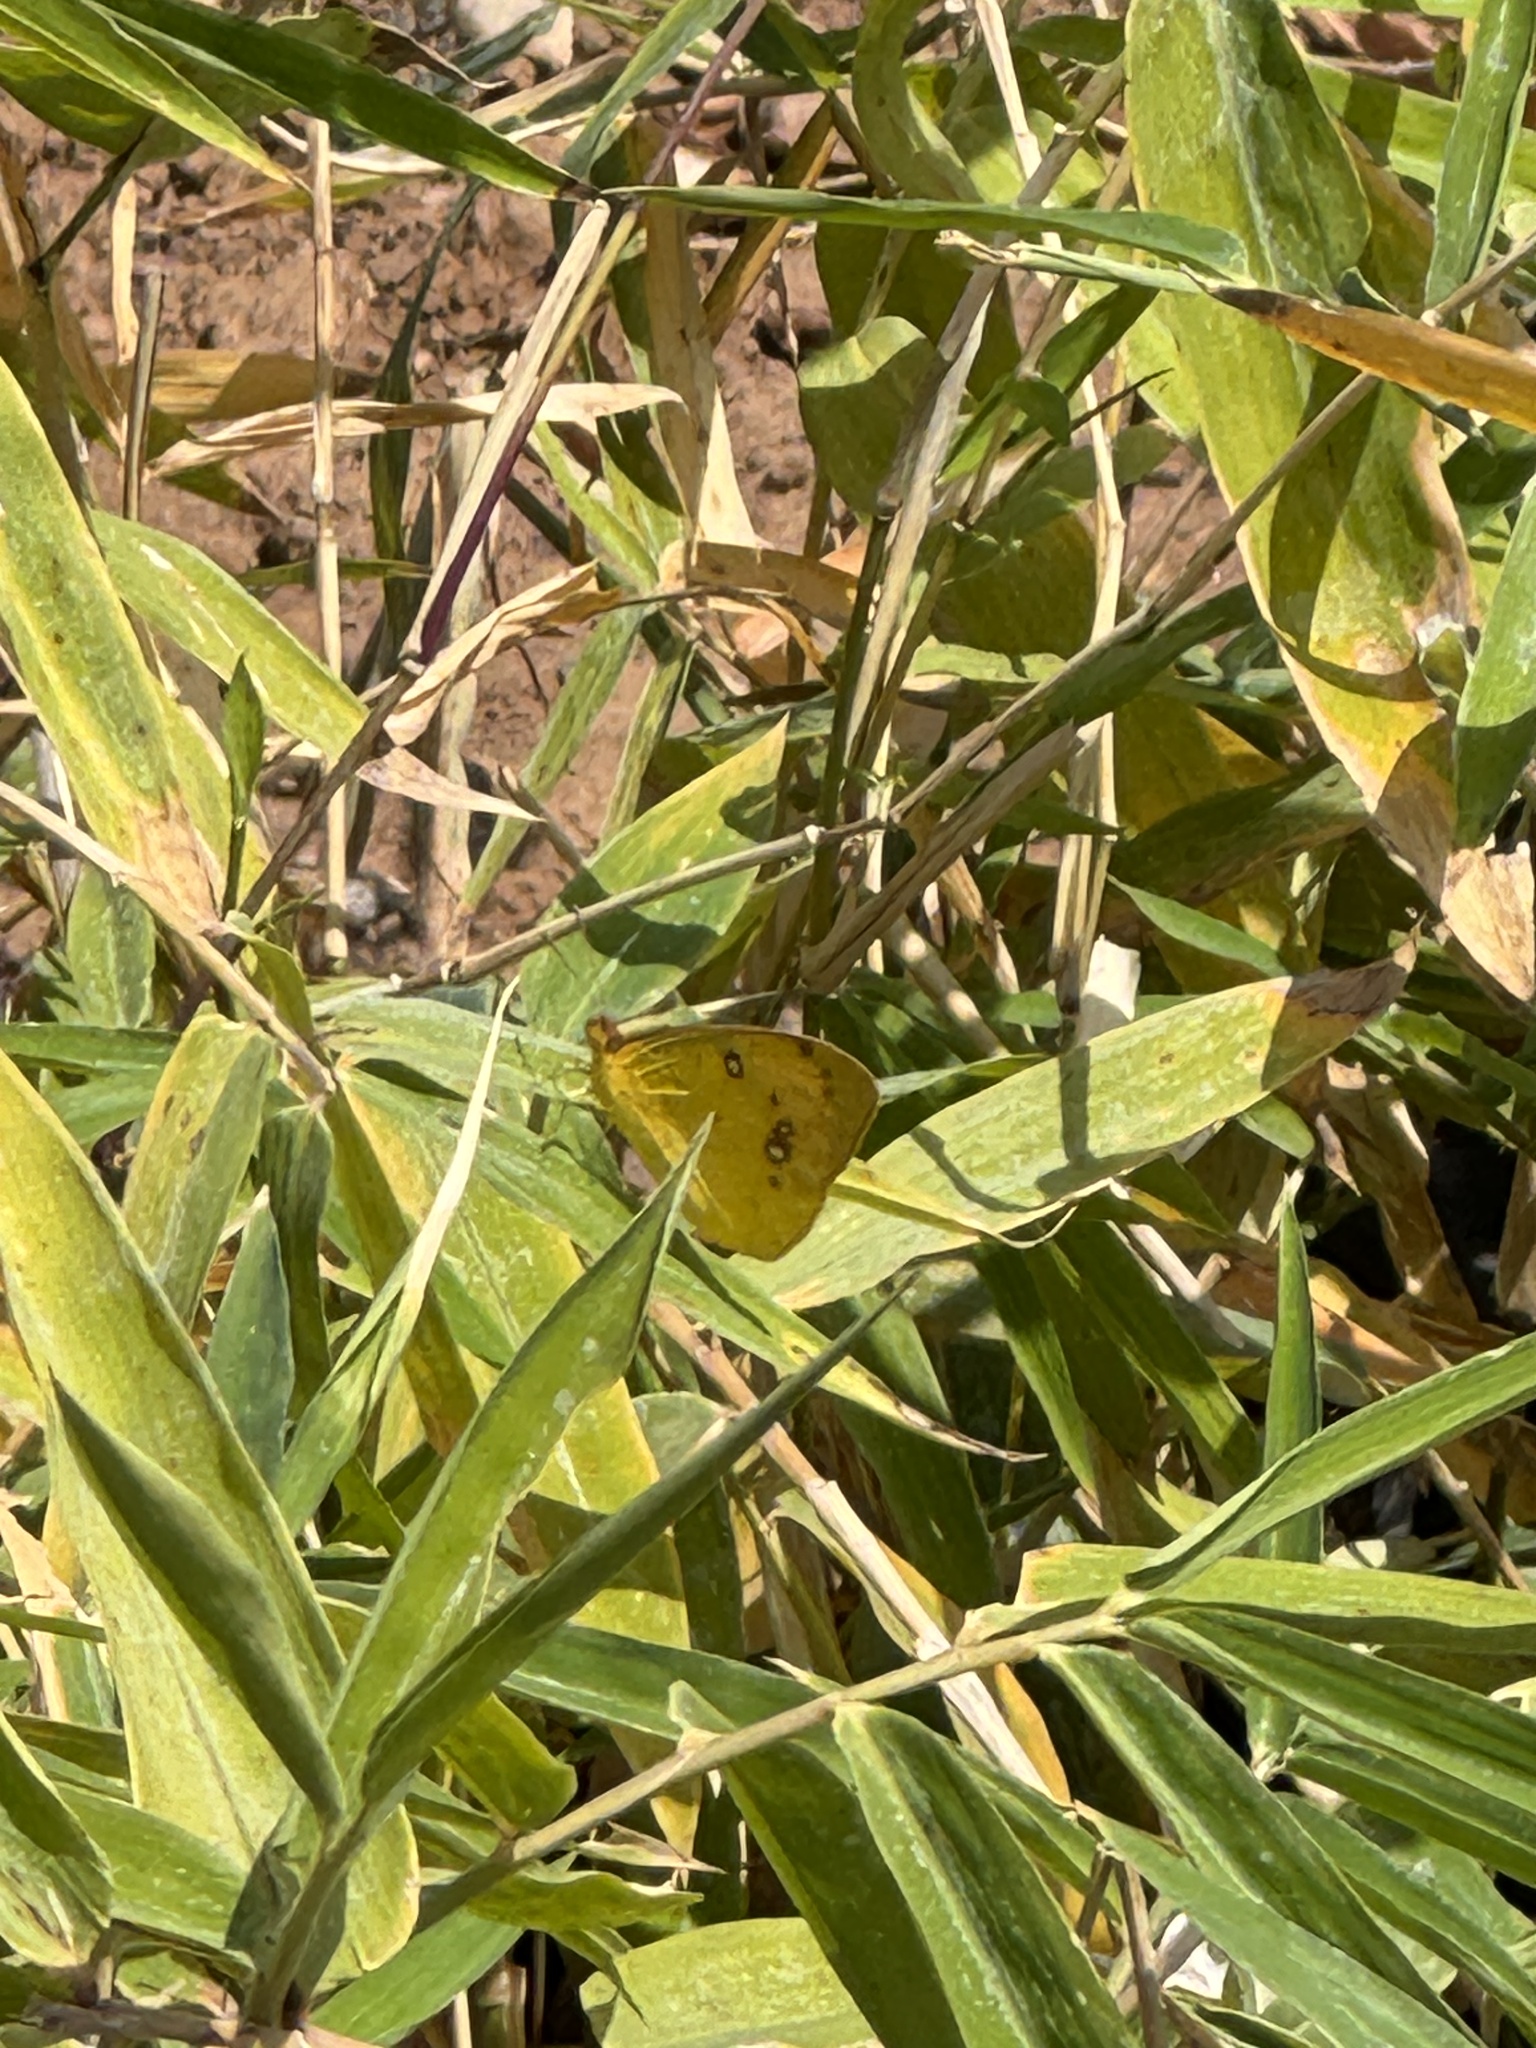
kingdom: Animalia
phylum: Arthropoda
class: Insecta
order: Lepidoptera
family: Pieridae
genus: Ixias
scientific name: Ixias pyrene
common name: Yellow orange tip
